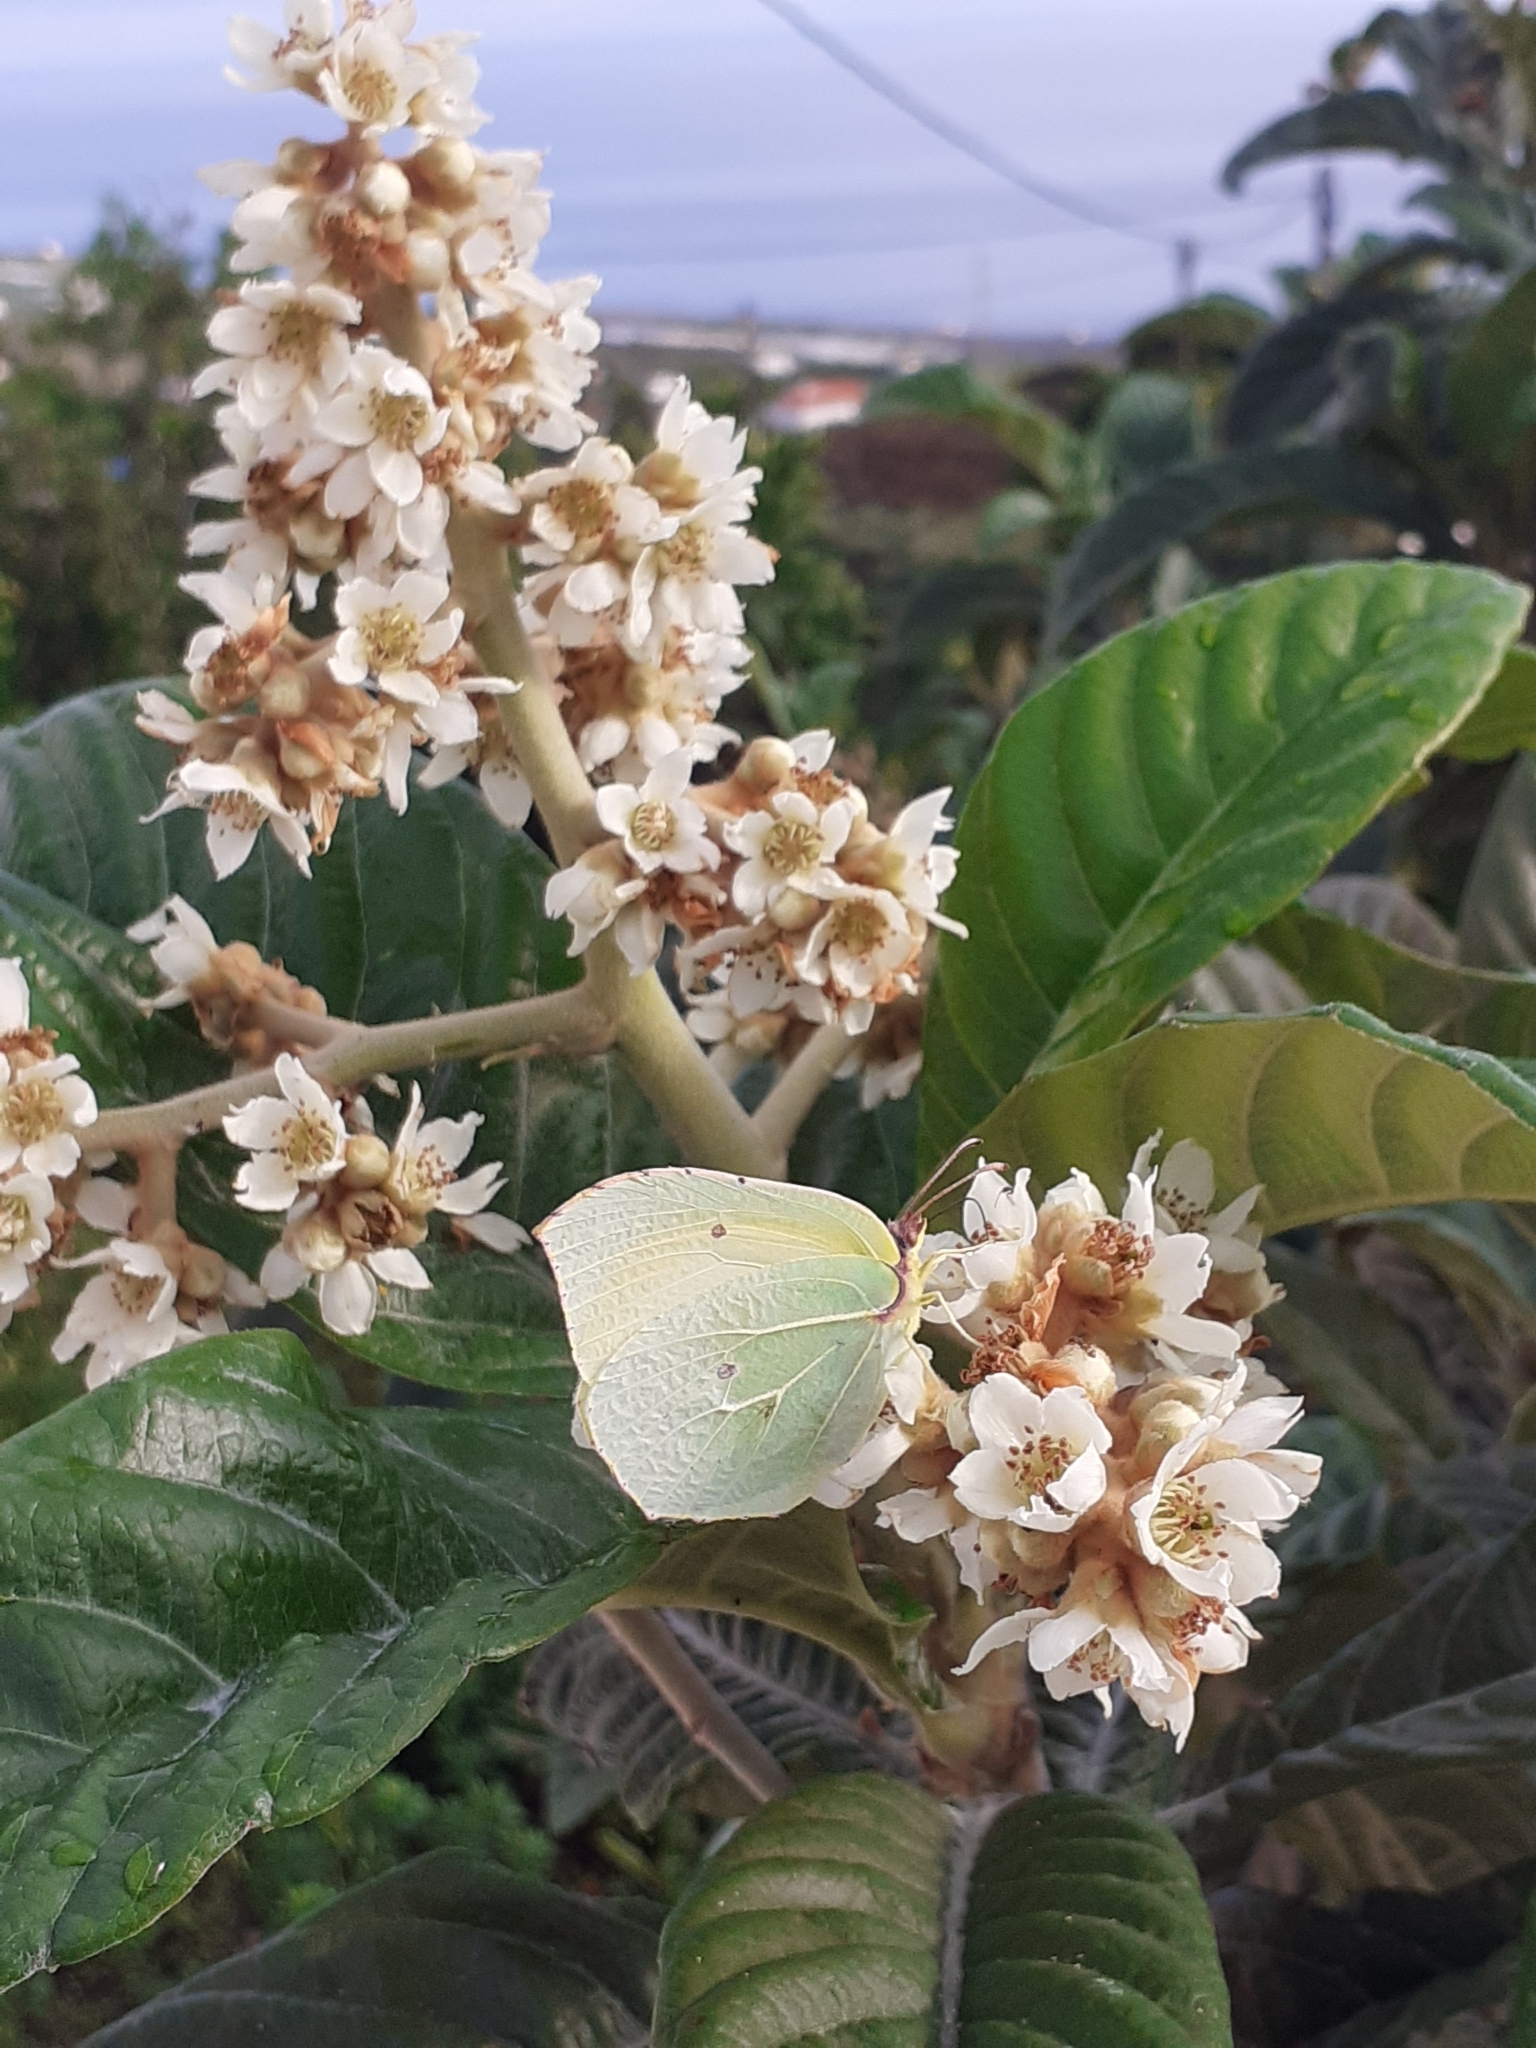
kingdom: Animalia
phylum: Arthropoda
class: Insecta
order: Lepidoptera
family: Pieridae
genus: Gonepteryx
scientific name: Gonepteryx cleobule
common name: Canary brimstone
